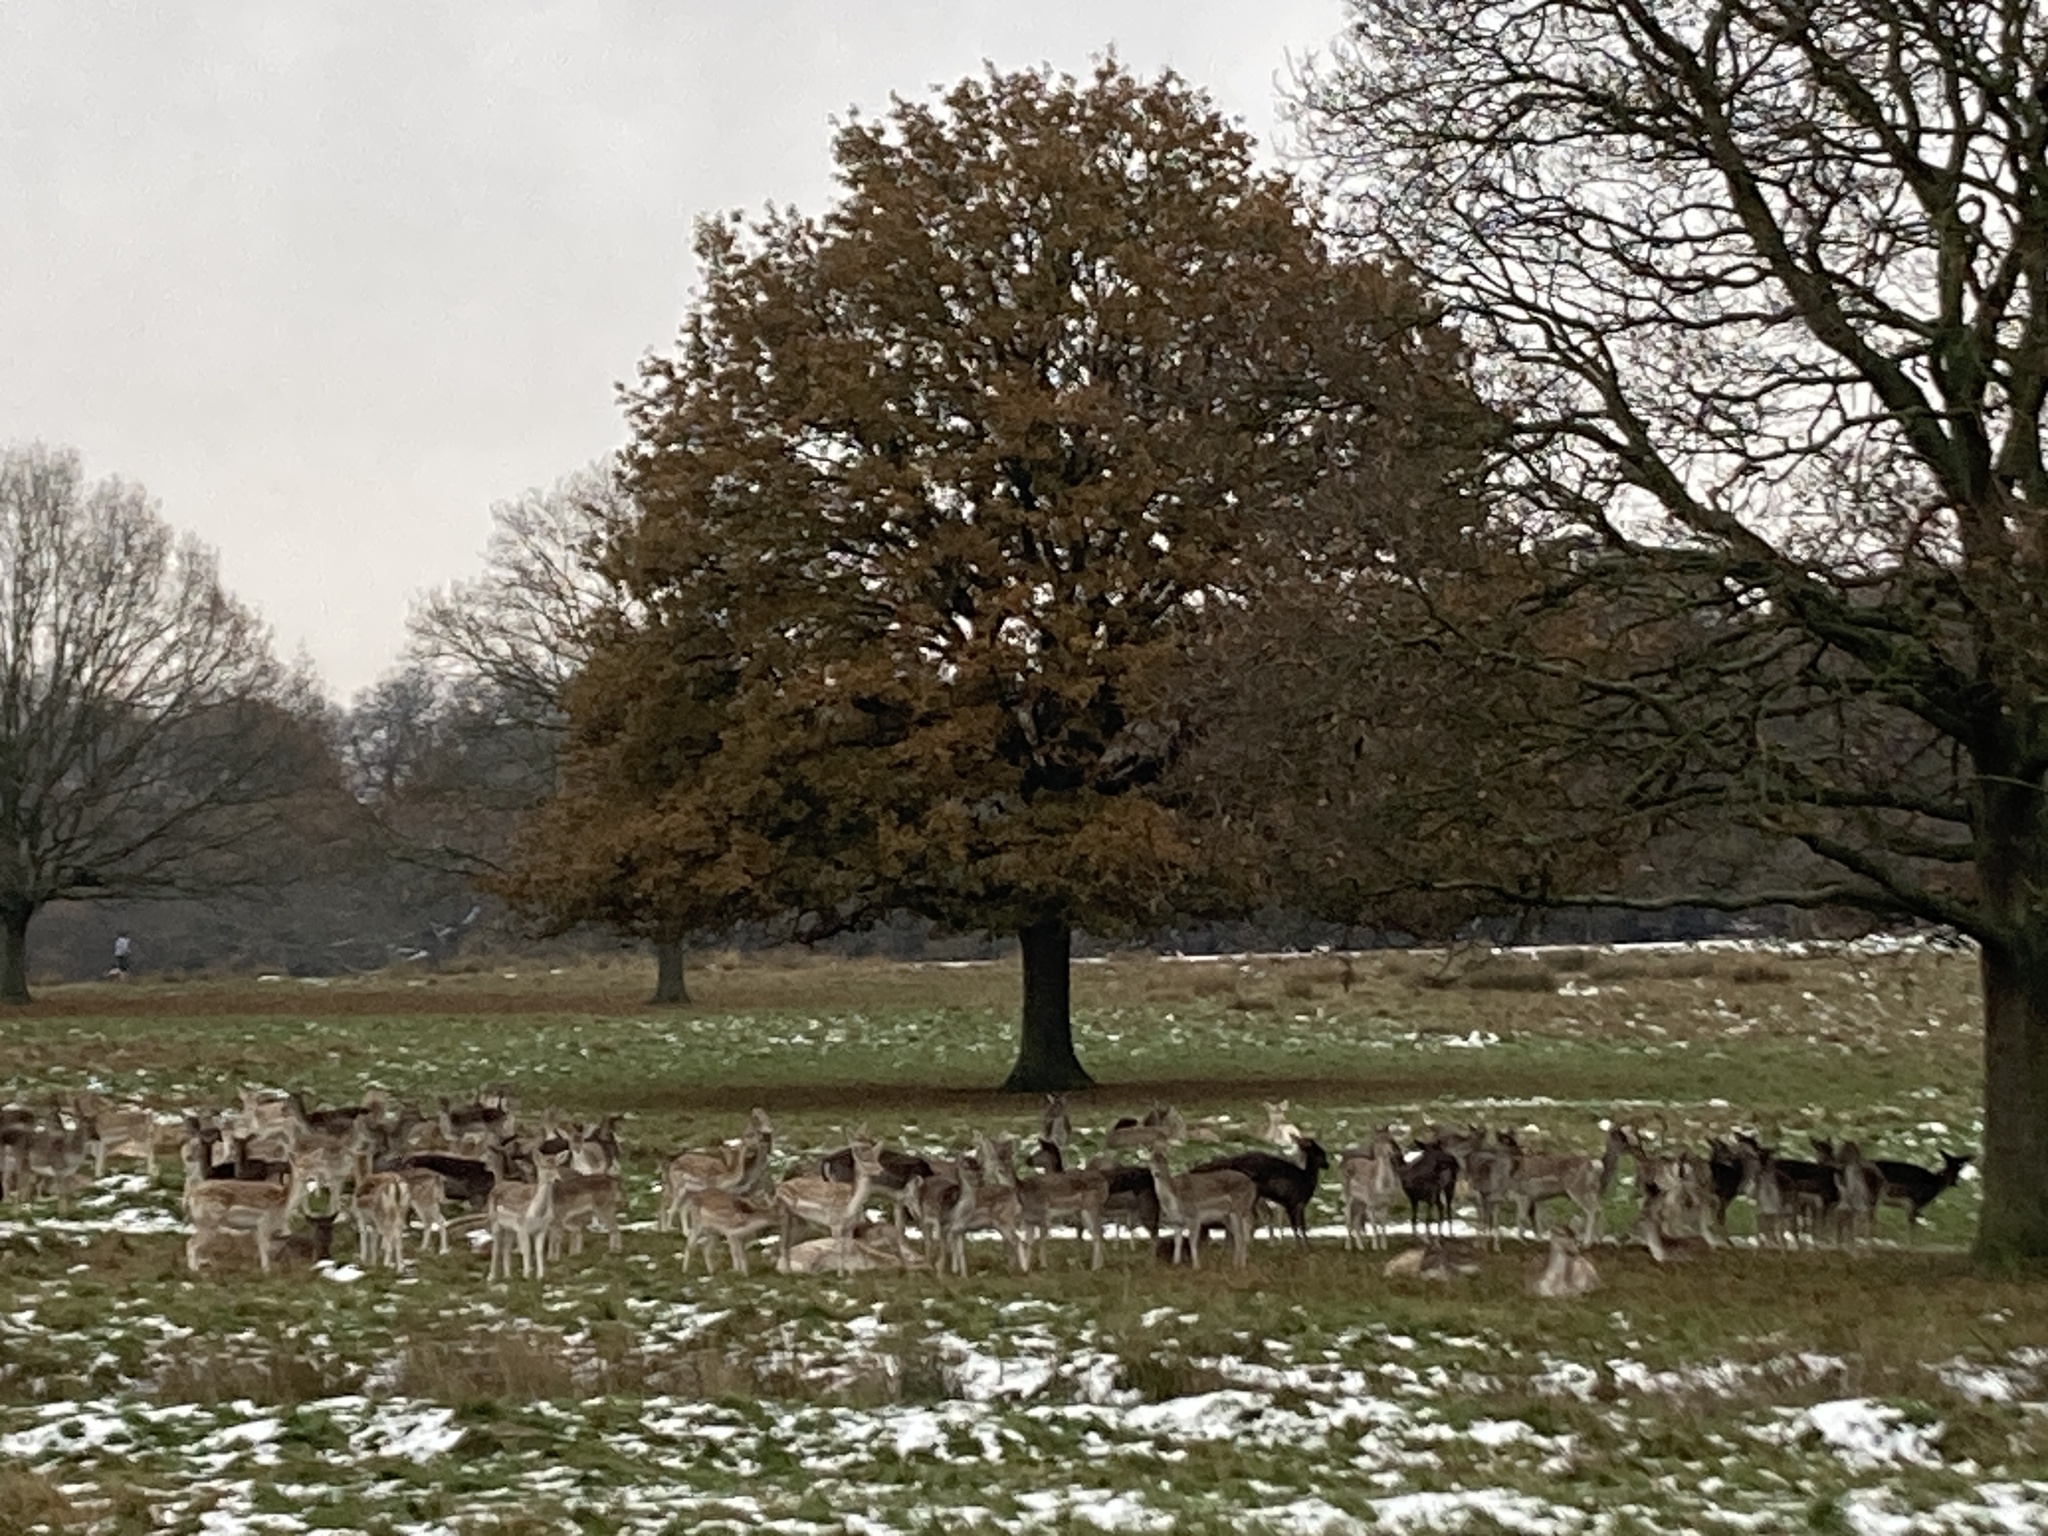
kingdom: Animalia
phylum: Chordata
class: Mammalia
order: Artiodactyla
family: Cervidae
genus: Dama
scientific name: Dama dama
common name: Fallow deer
